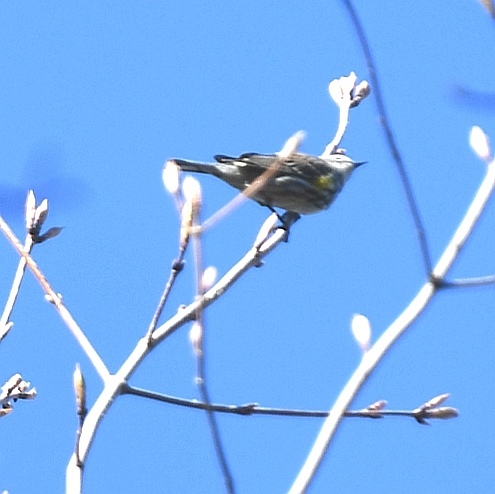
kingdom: Animalia
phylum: Chordata
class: Aves
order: Passeriformes
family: Parulidae
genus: Setophaga
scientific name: Setophaga coronata
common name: Myrtle warbler
